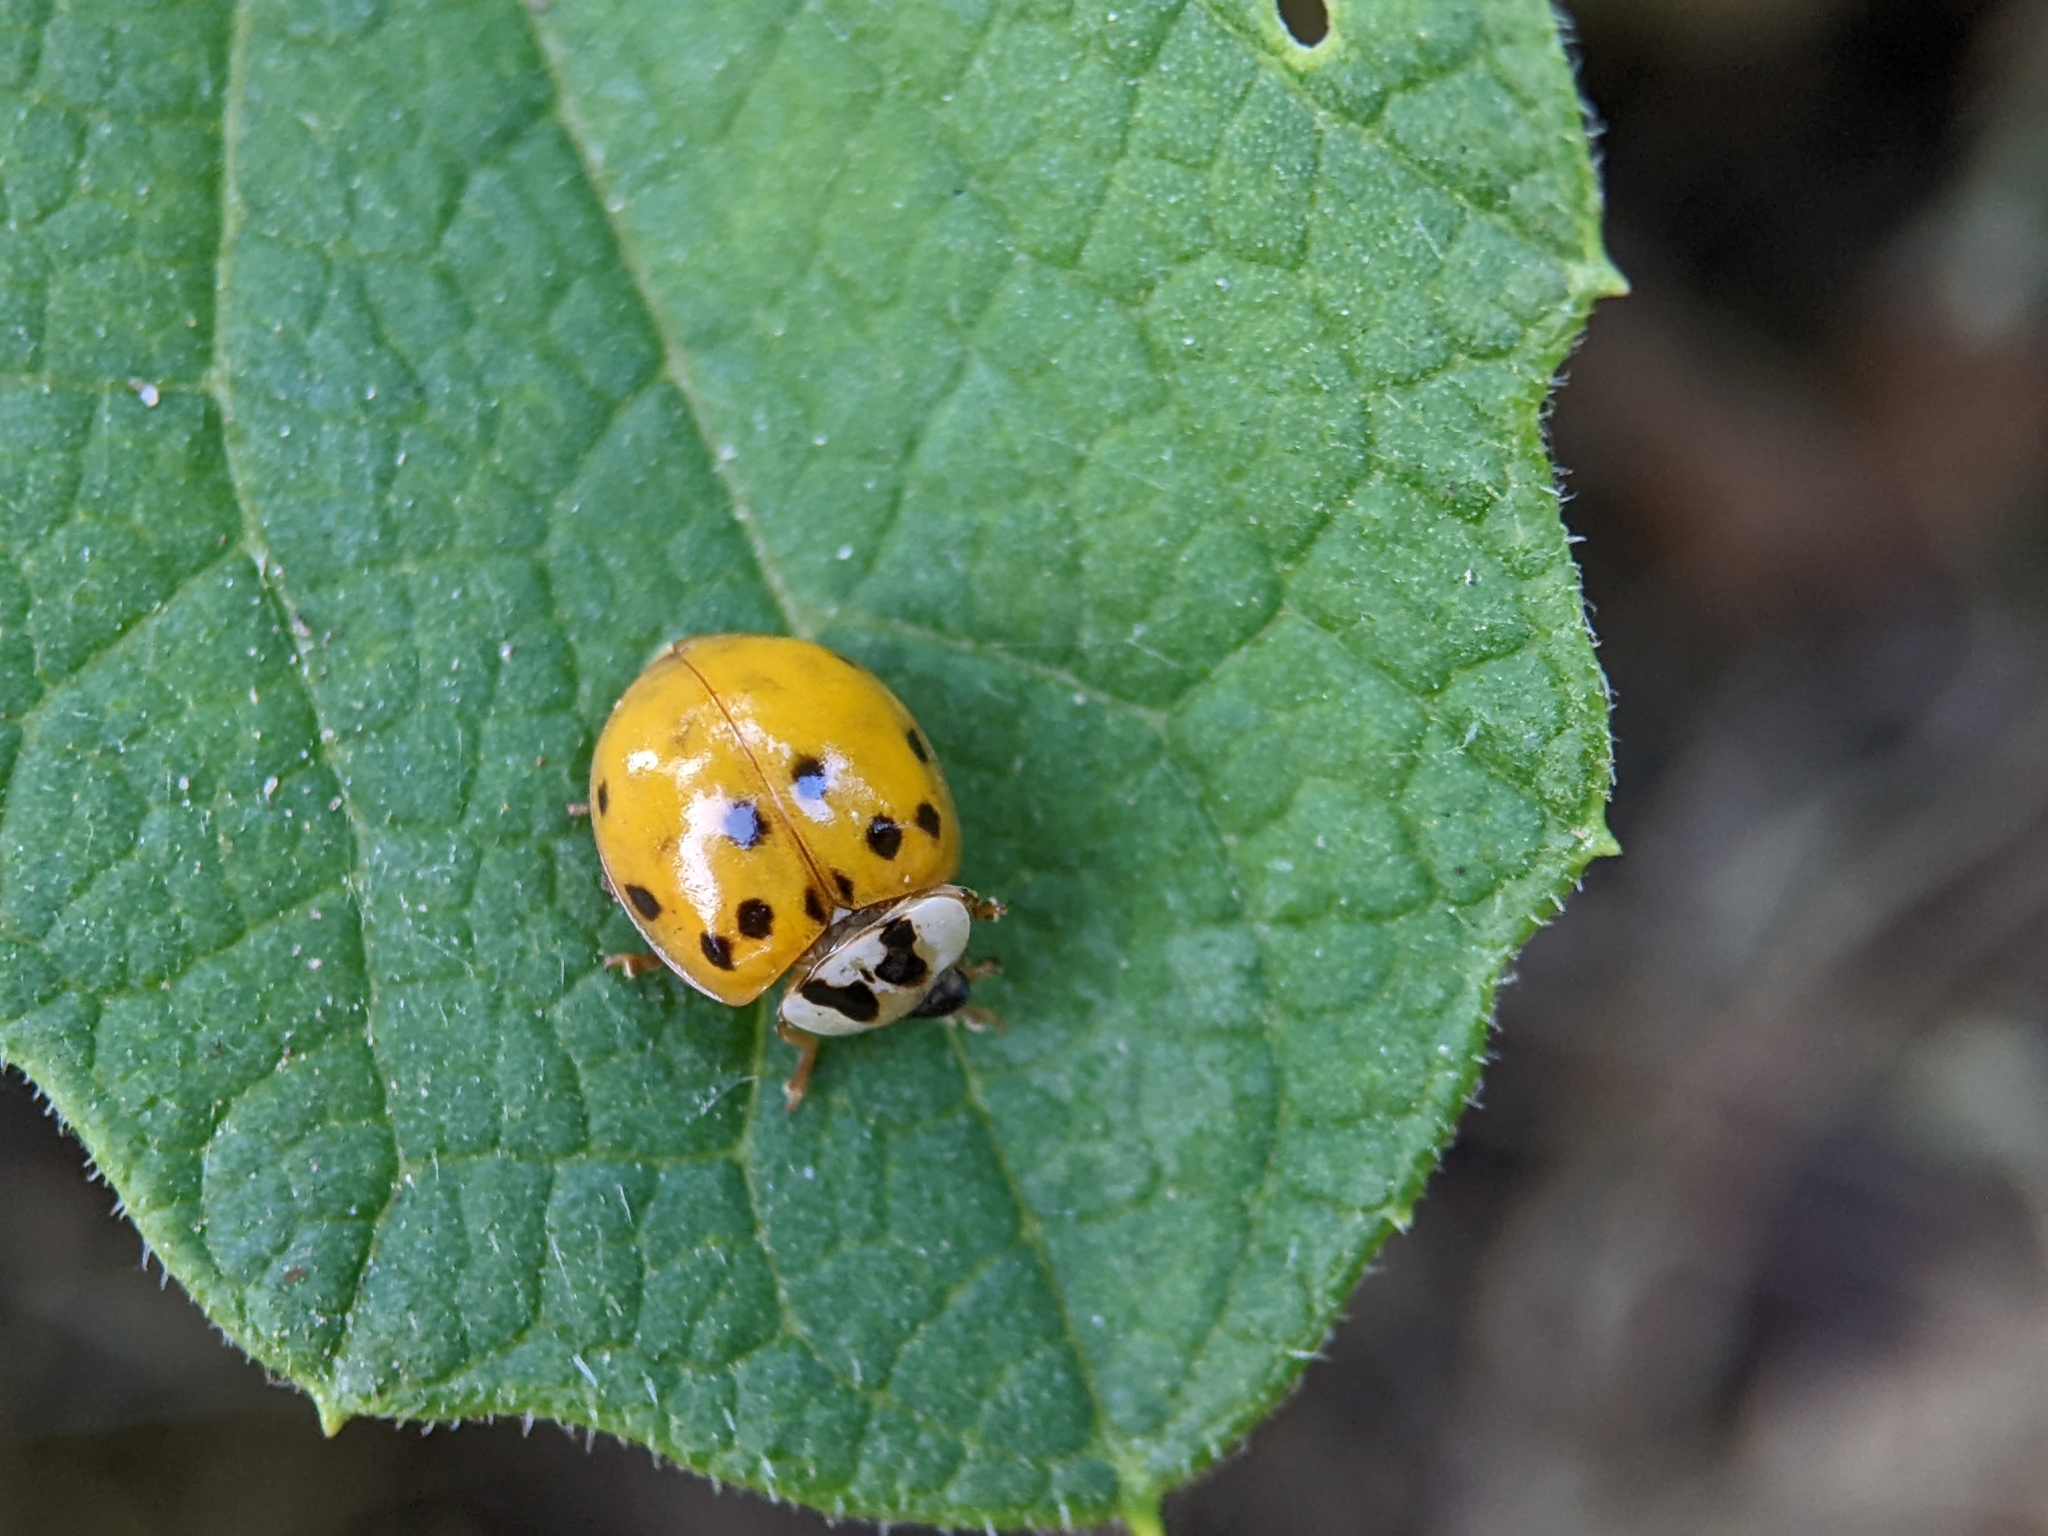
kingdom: Animalia
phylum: Arthropoda
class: Insecta
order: Coleoptera
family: Coccinellidae
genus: Harmonia
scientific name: Harmonia axyridis
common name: Harlequin ladybird
